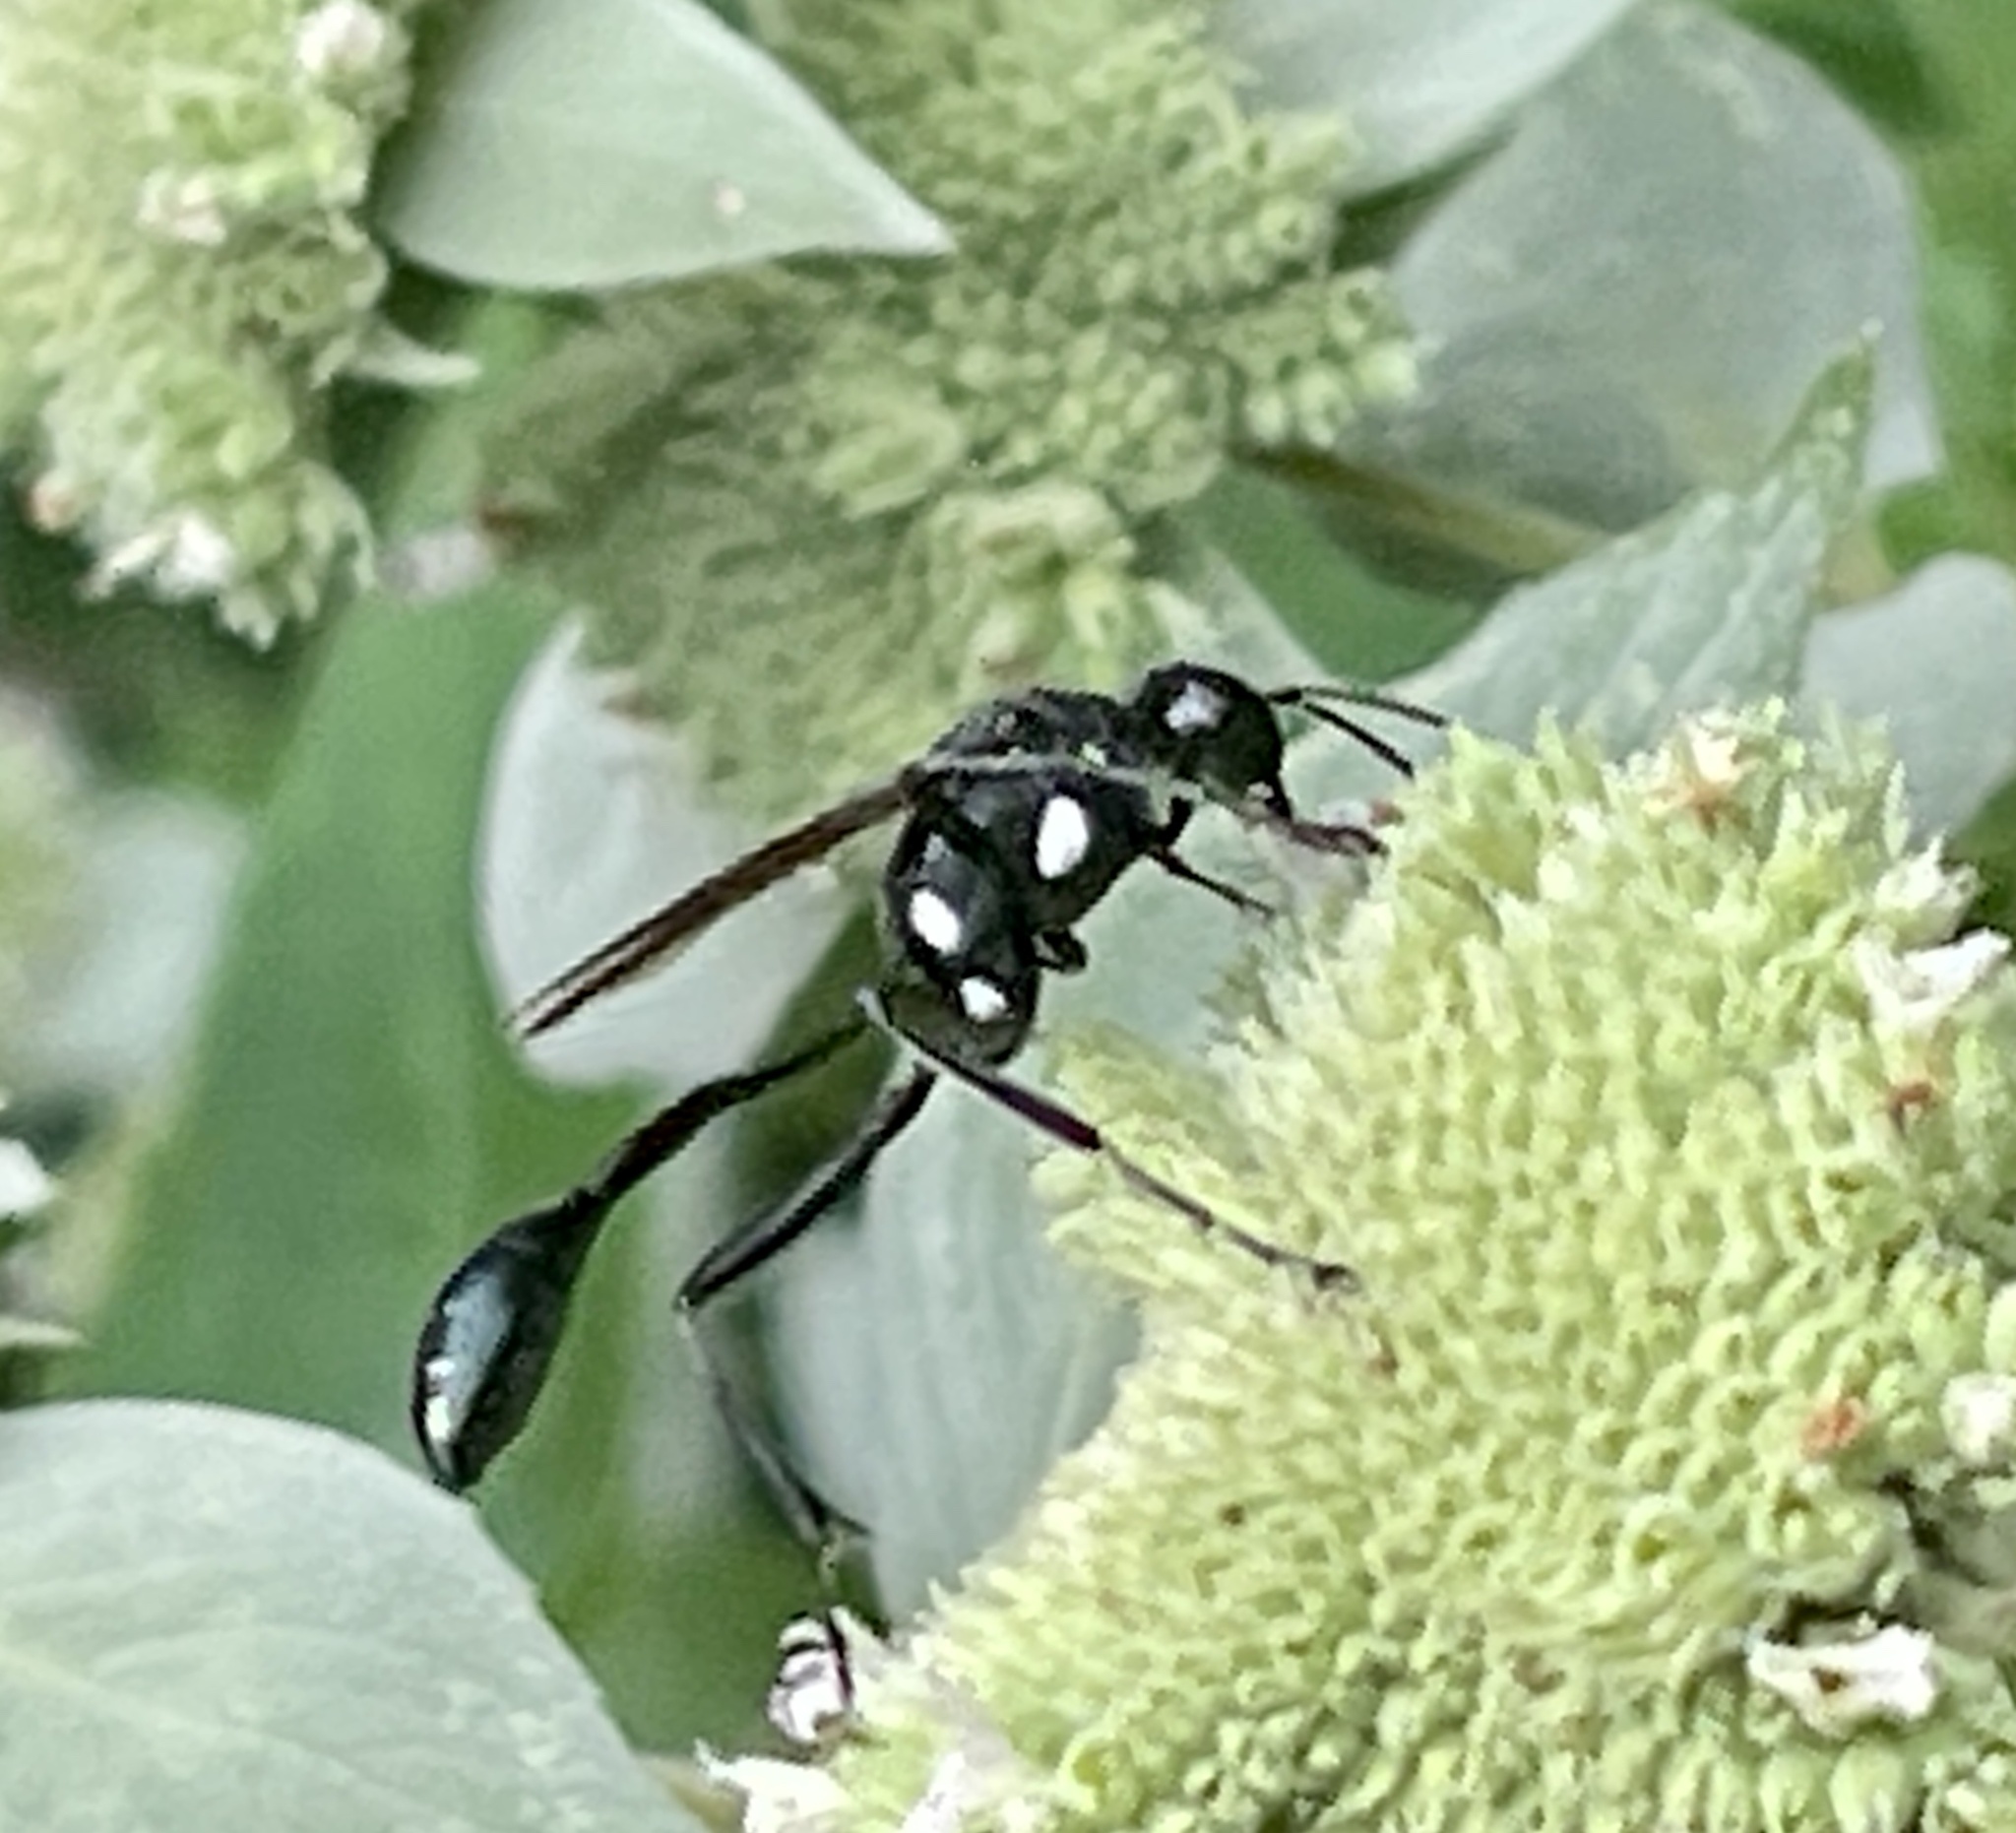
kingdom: Animalia
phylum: Arthropoda
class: Insecta
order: Hymenoptera
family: Sphecidae
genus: Eremnophila
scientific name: Eremnophila aureonotata
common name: Gold-marked thread-waisted wasp
